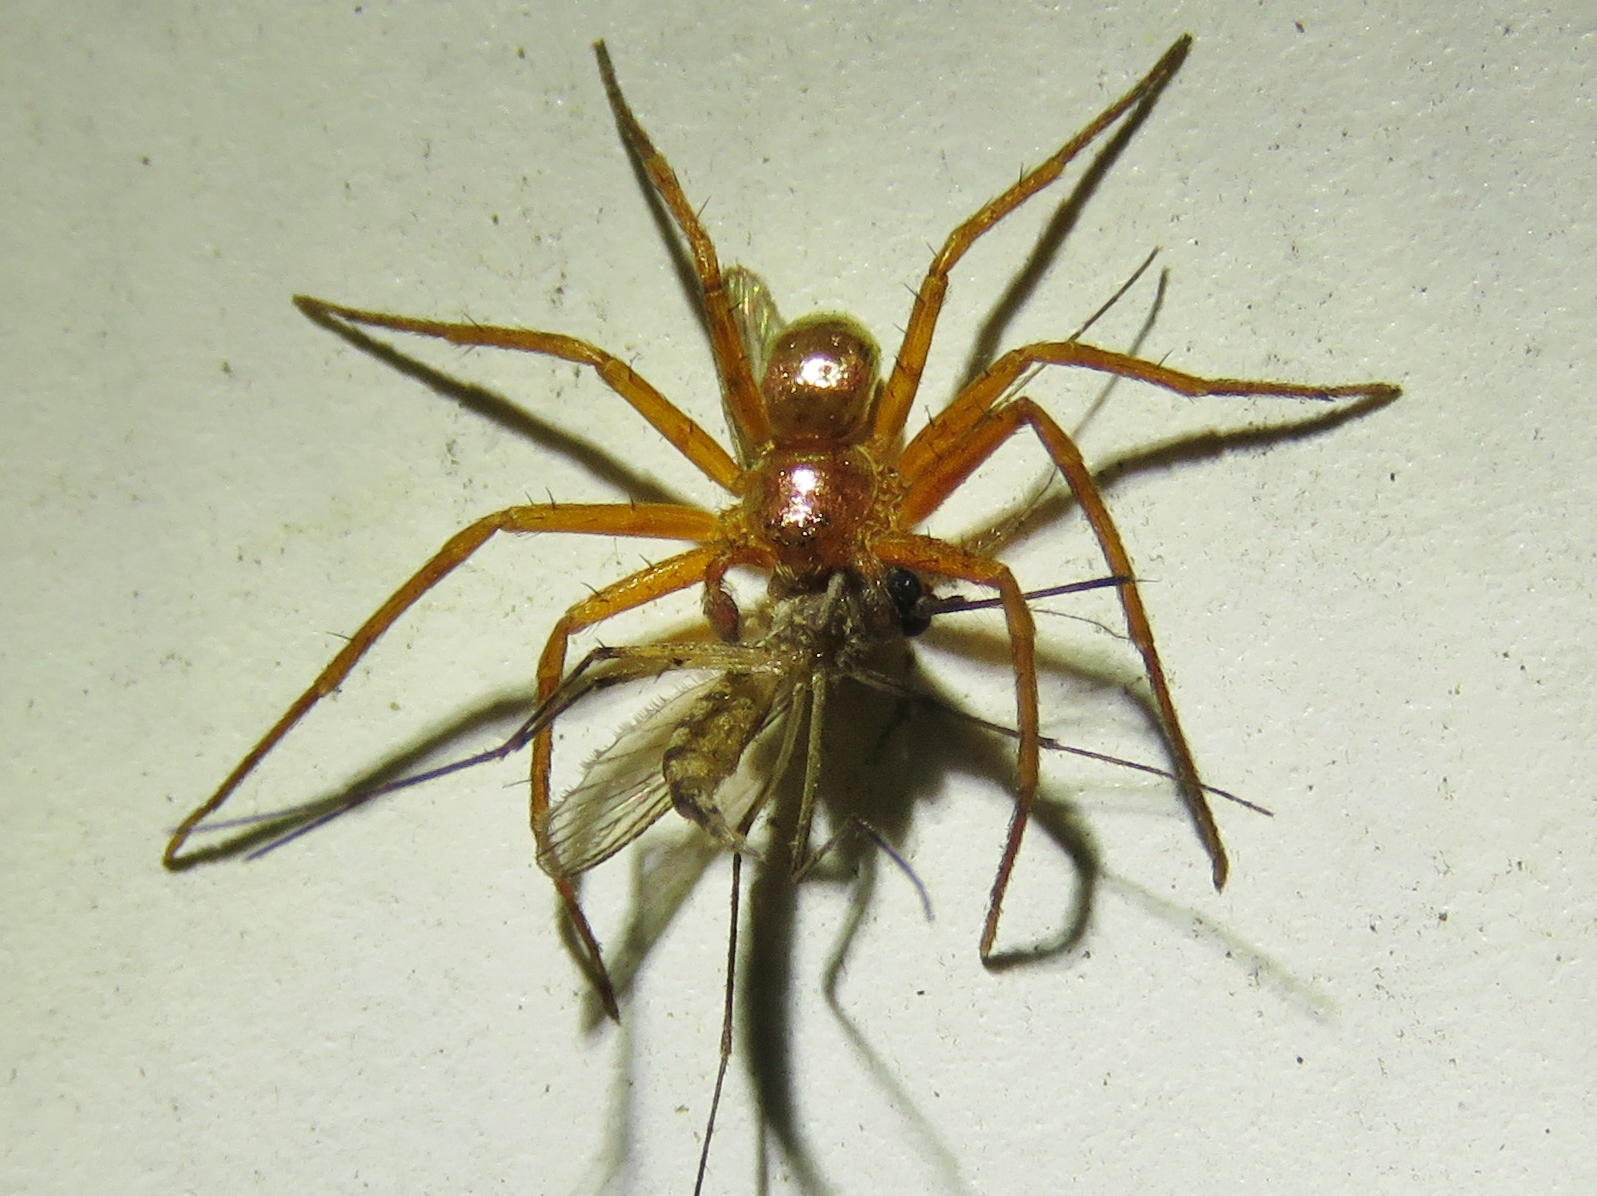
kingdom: Animalia
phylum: Arthropoda
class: Arachnida
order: Araneae
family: Philodromidae
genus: Philodromus
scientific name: Philodromus marxi
